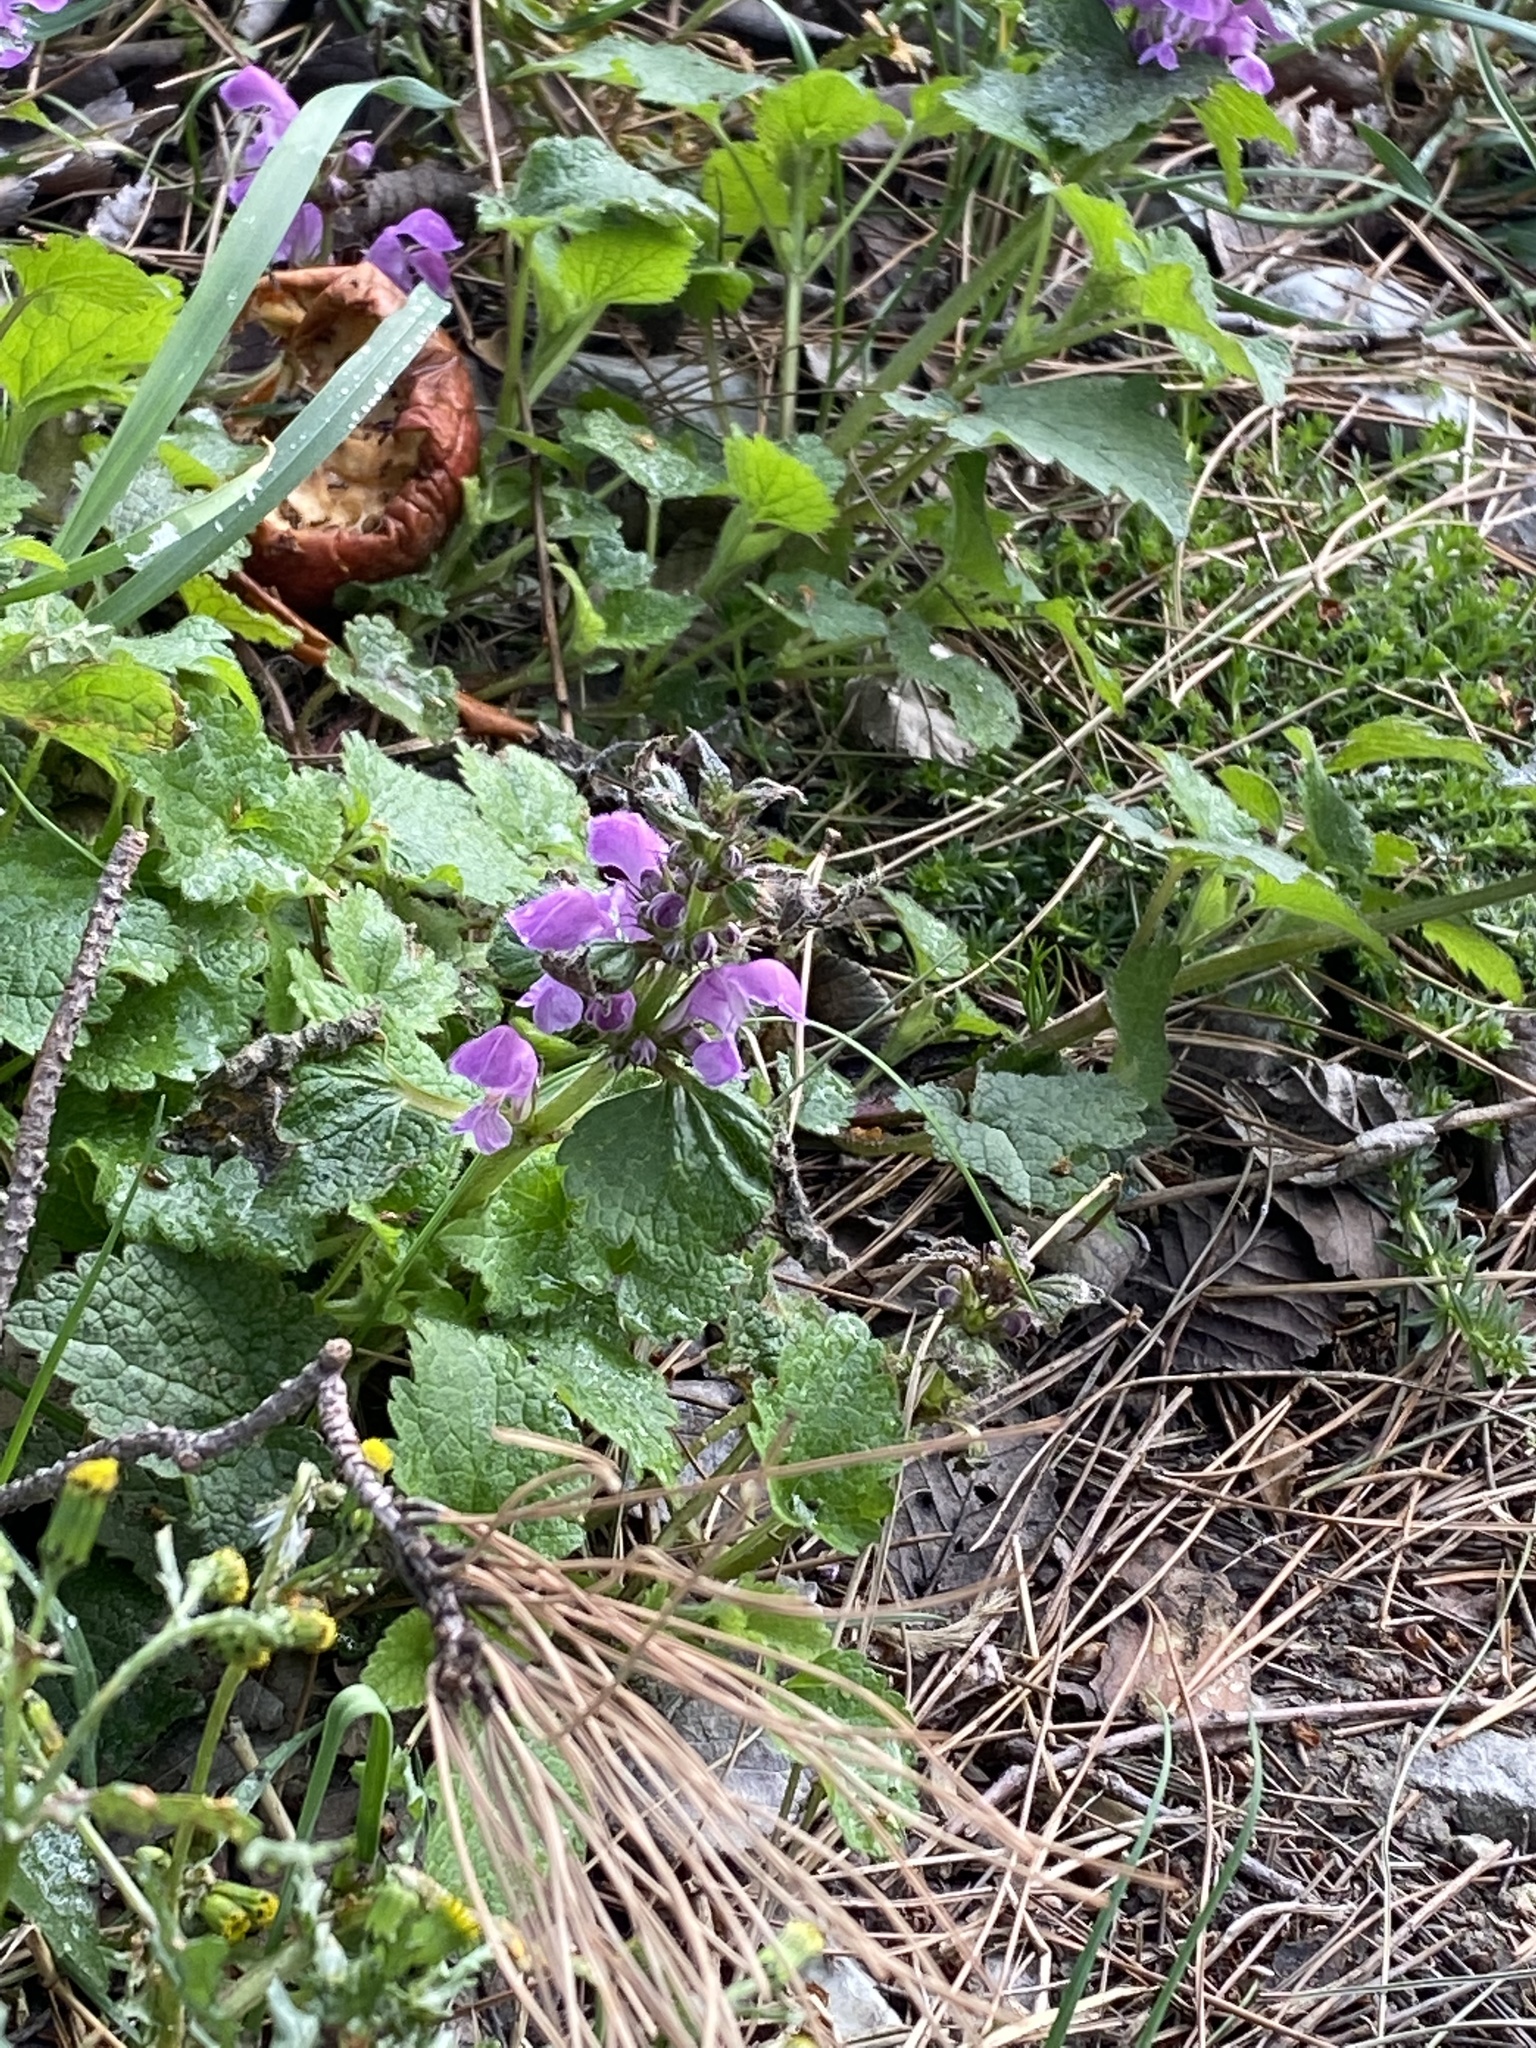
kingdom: Plantae
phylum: Tracheophyta
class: Magnoliopsida
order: Lamiales
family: Lamiaceae
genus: Lamium
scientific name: Lamium maculatum
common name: Spotted dead-nettle
